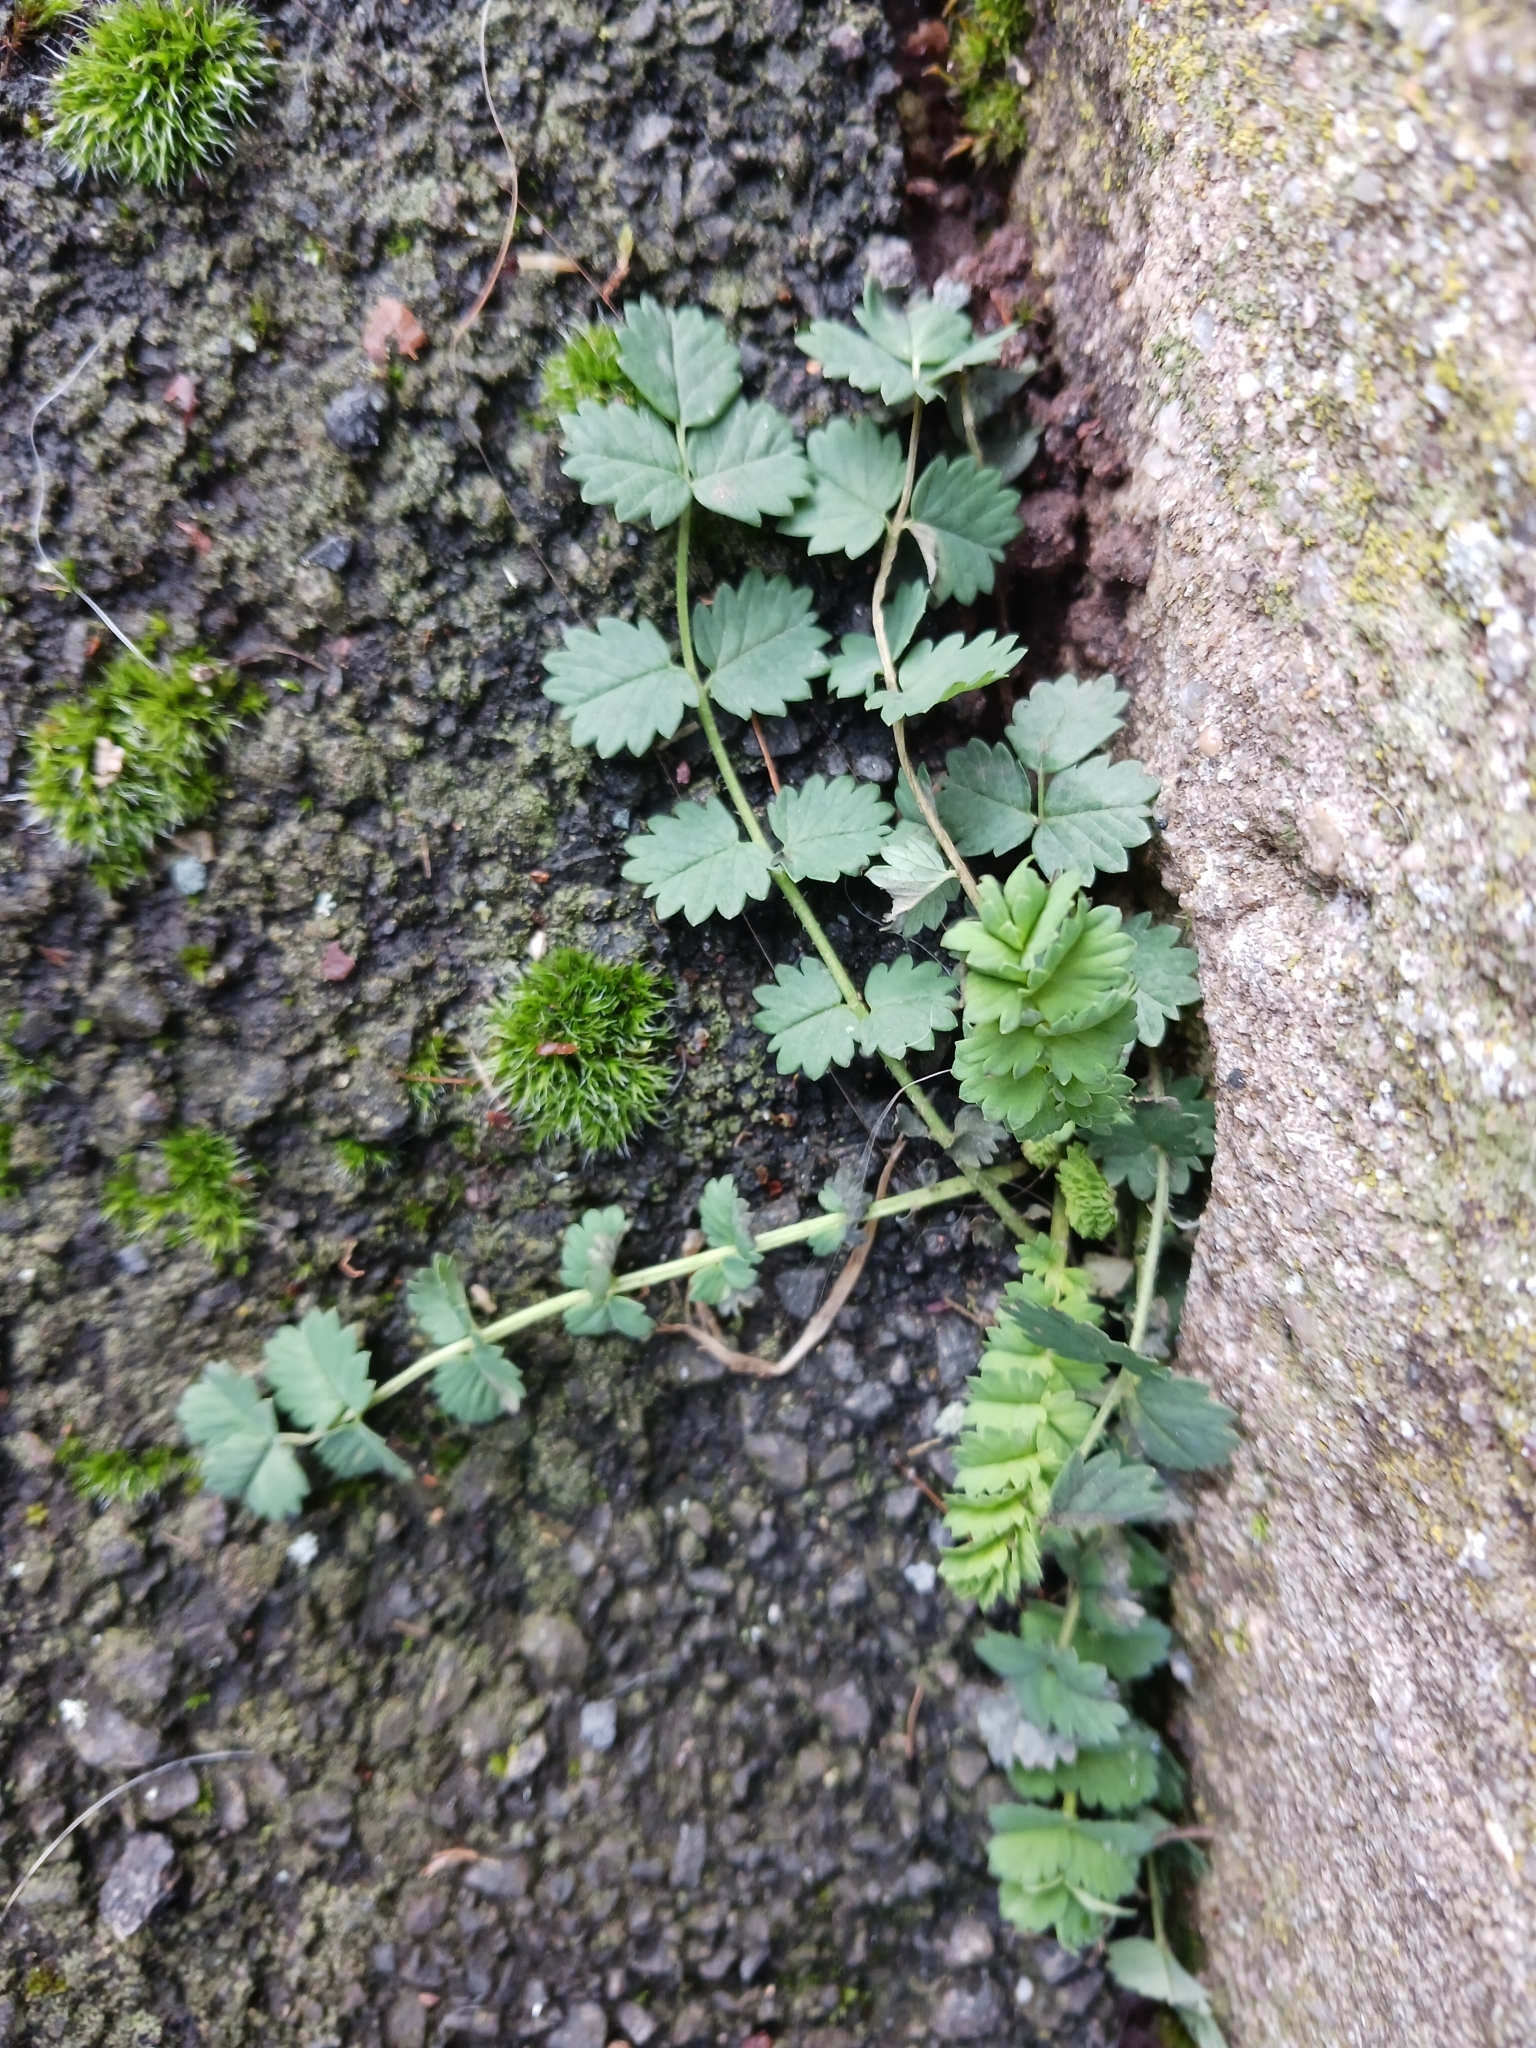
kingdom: Plantae
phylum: Tracheophyta
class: Magnoliopsida
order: Rosales
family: Rosaceae
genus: Poterium
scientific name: Poterium sanguisorba
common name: Salad burnet
